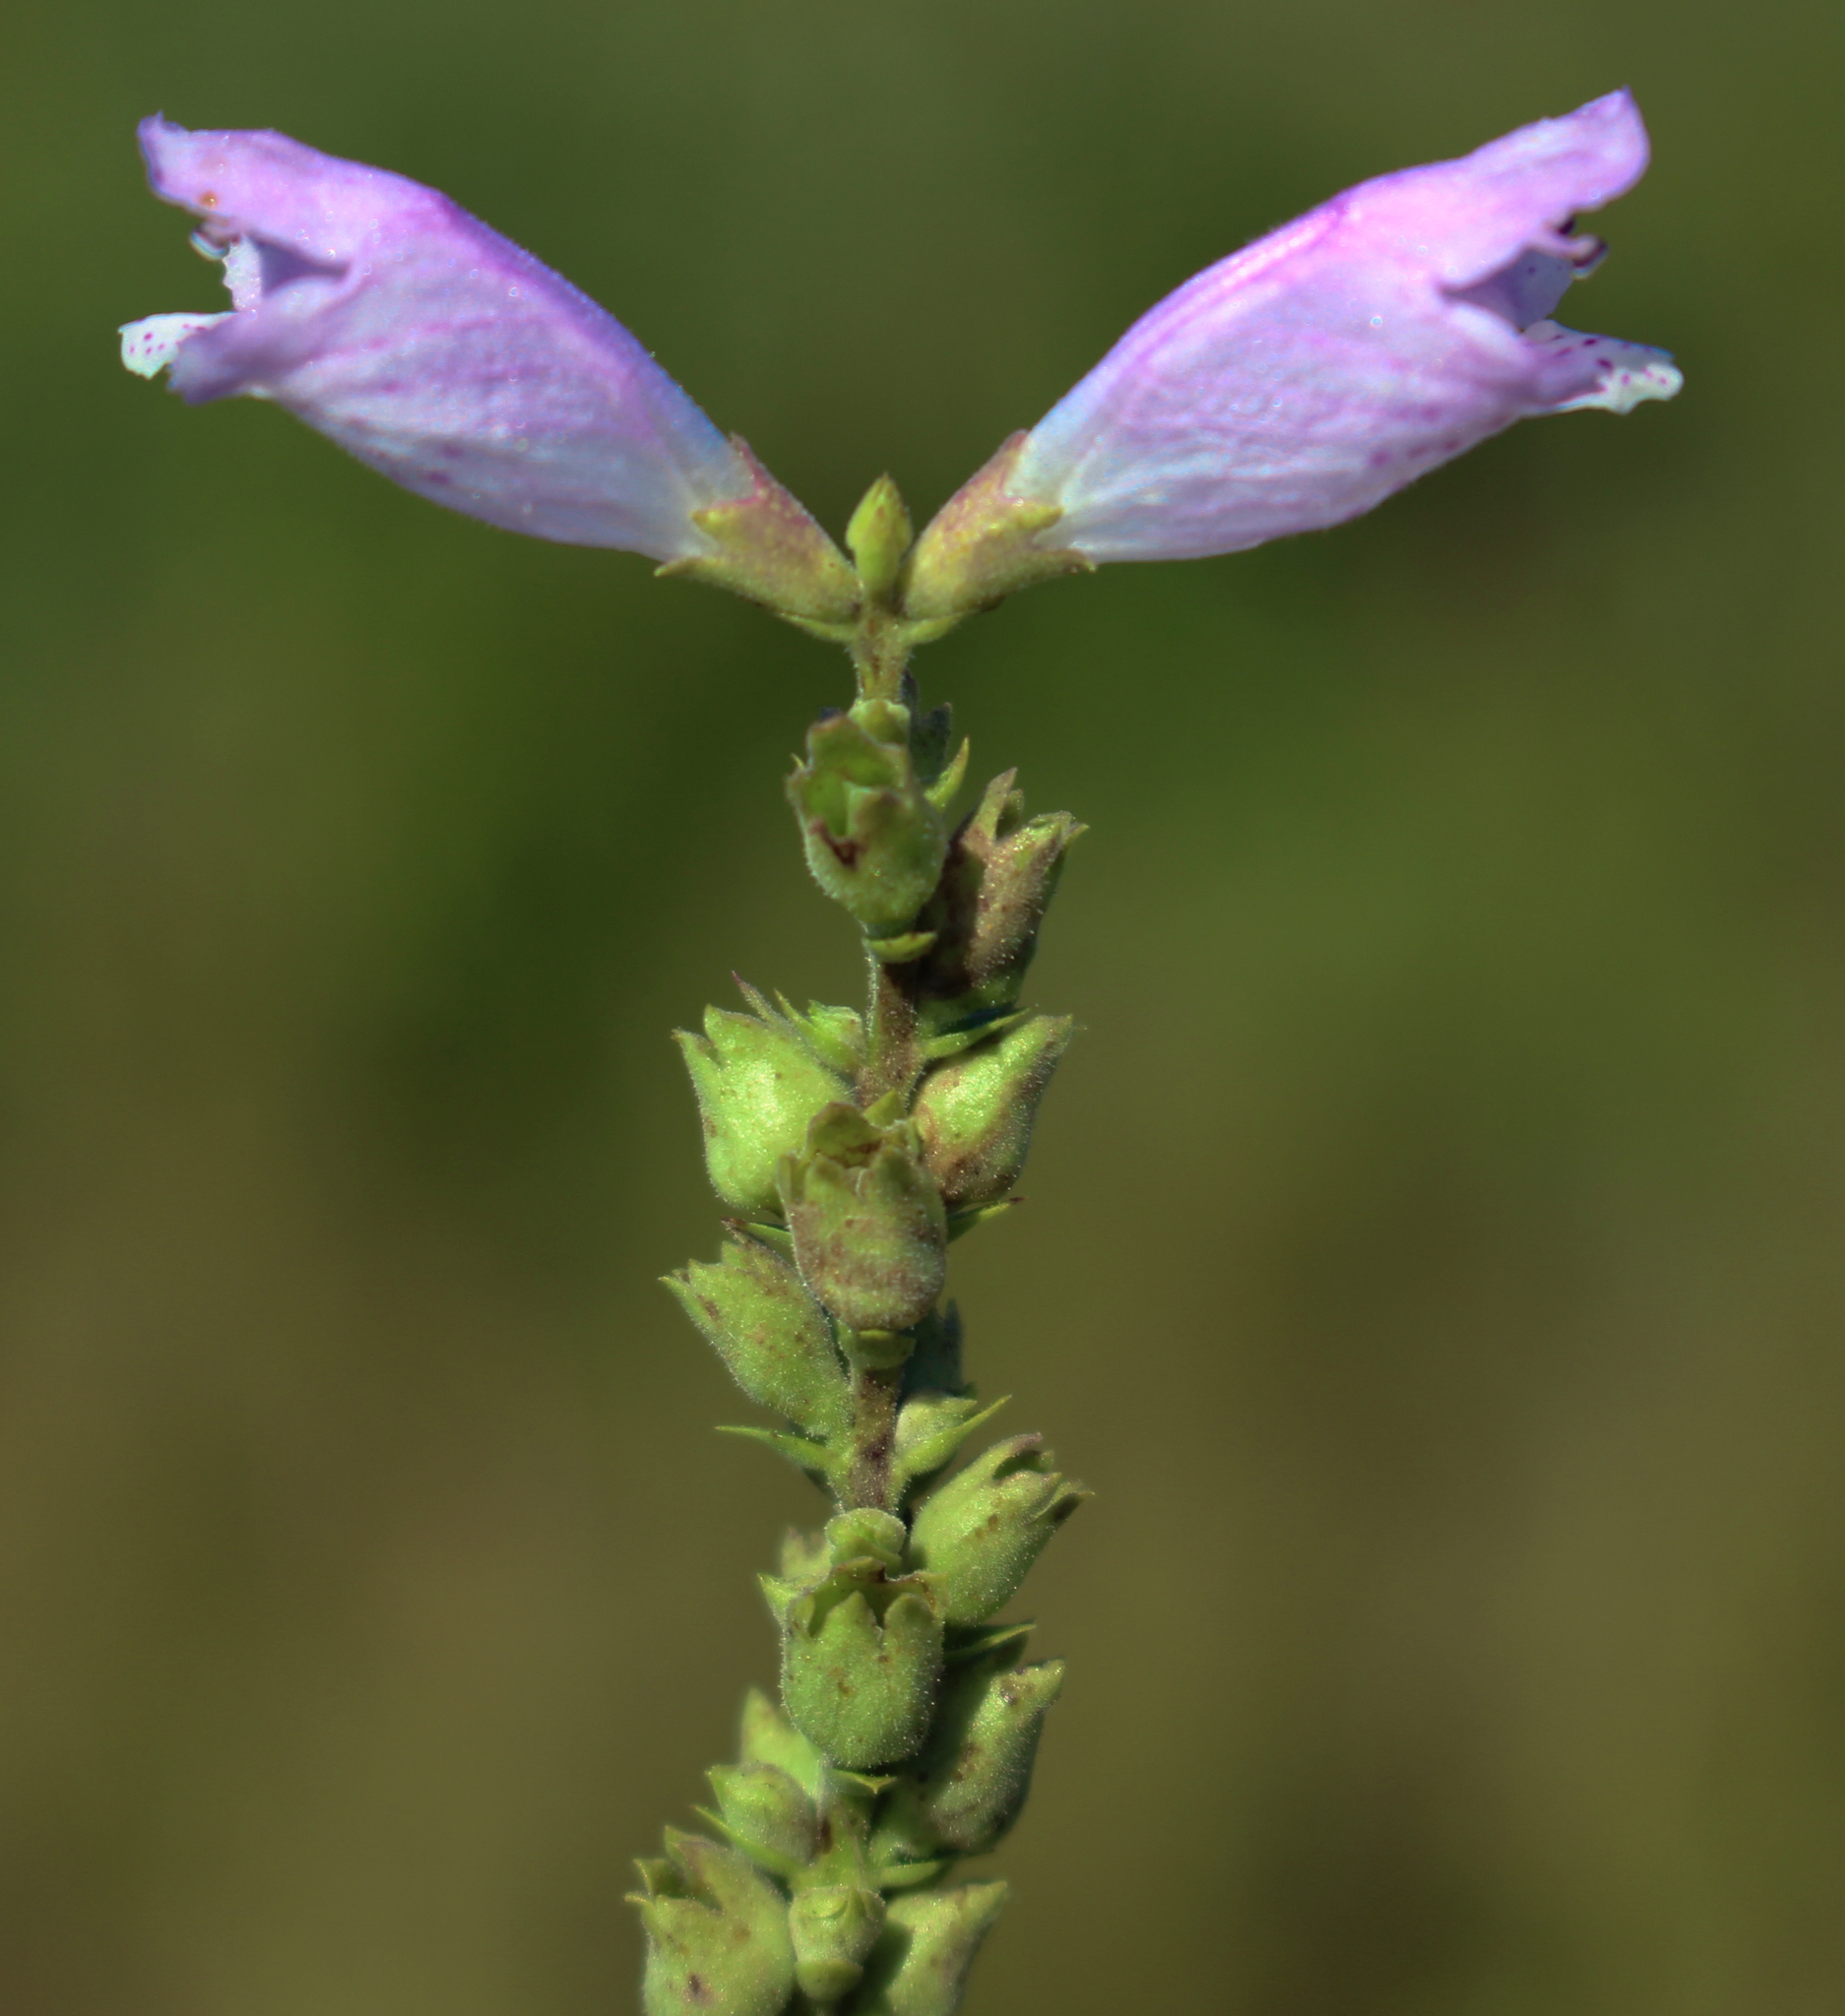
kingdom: Plantae
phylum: Tracheophyta
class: Magnoliopsida
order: Lamiales
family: Lamiaceae
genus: Physostegia
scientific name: Physostegia virginiana
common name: Obedient-plant
